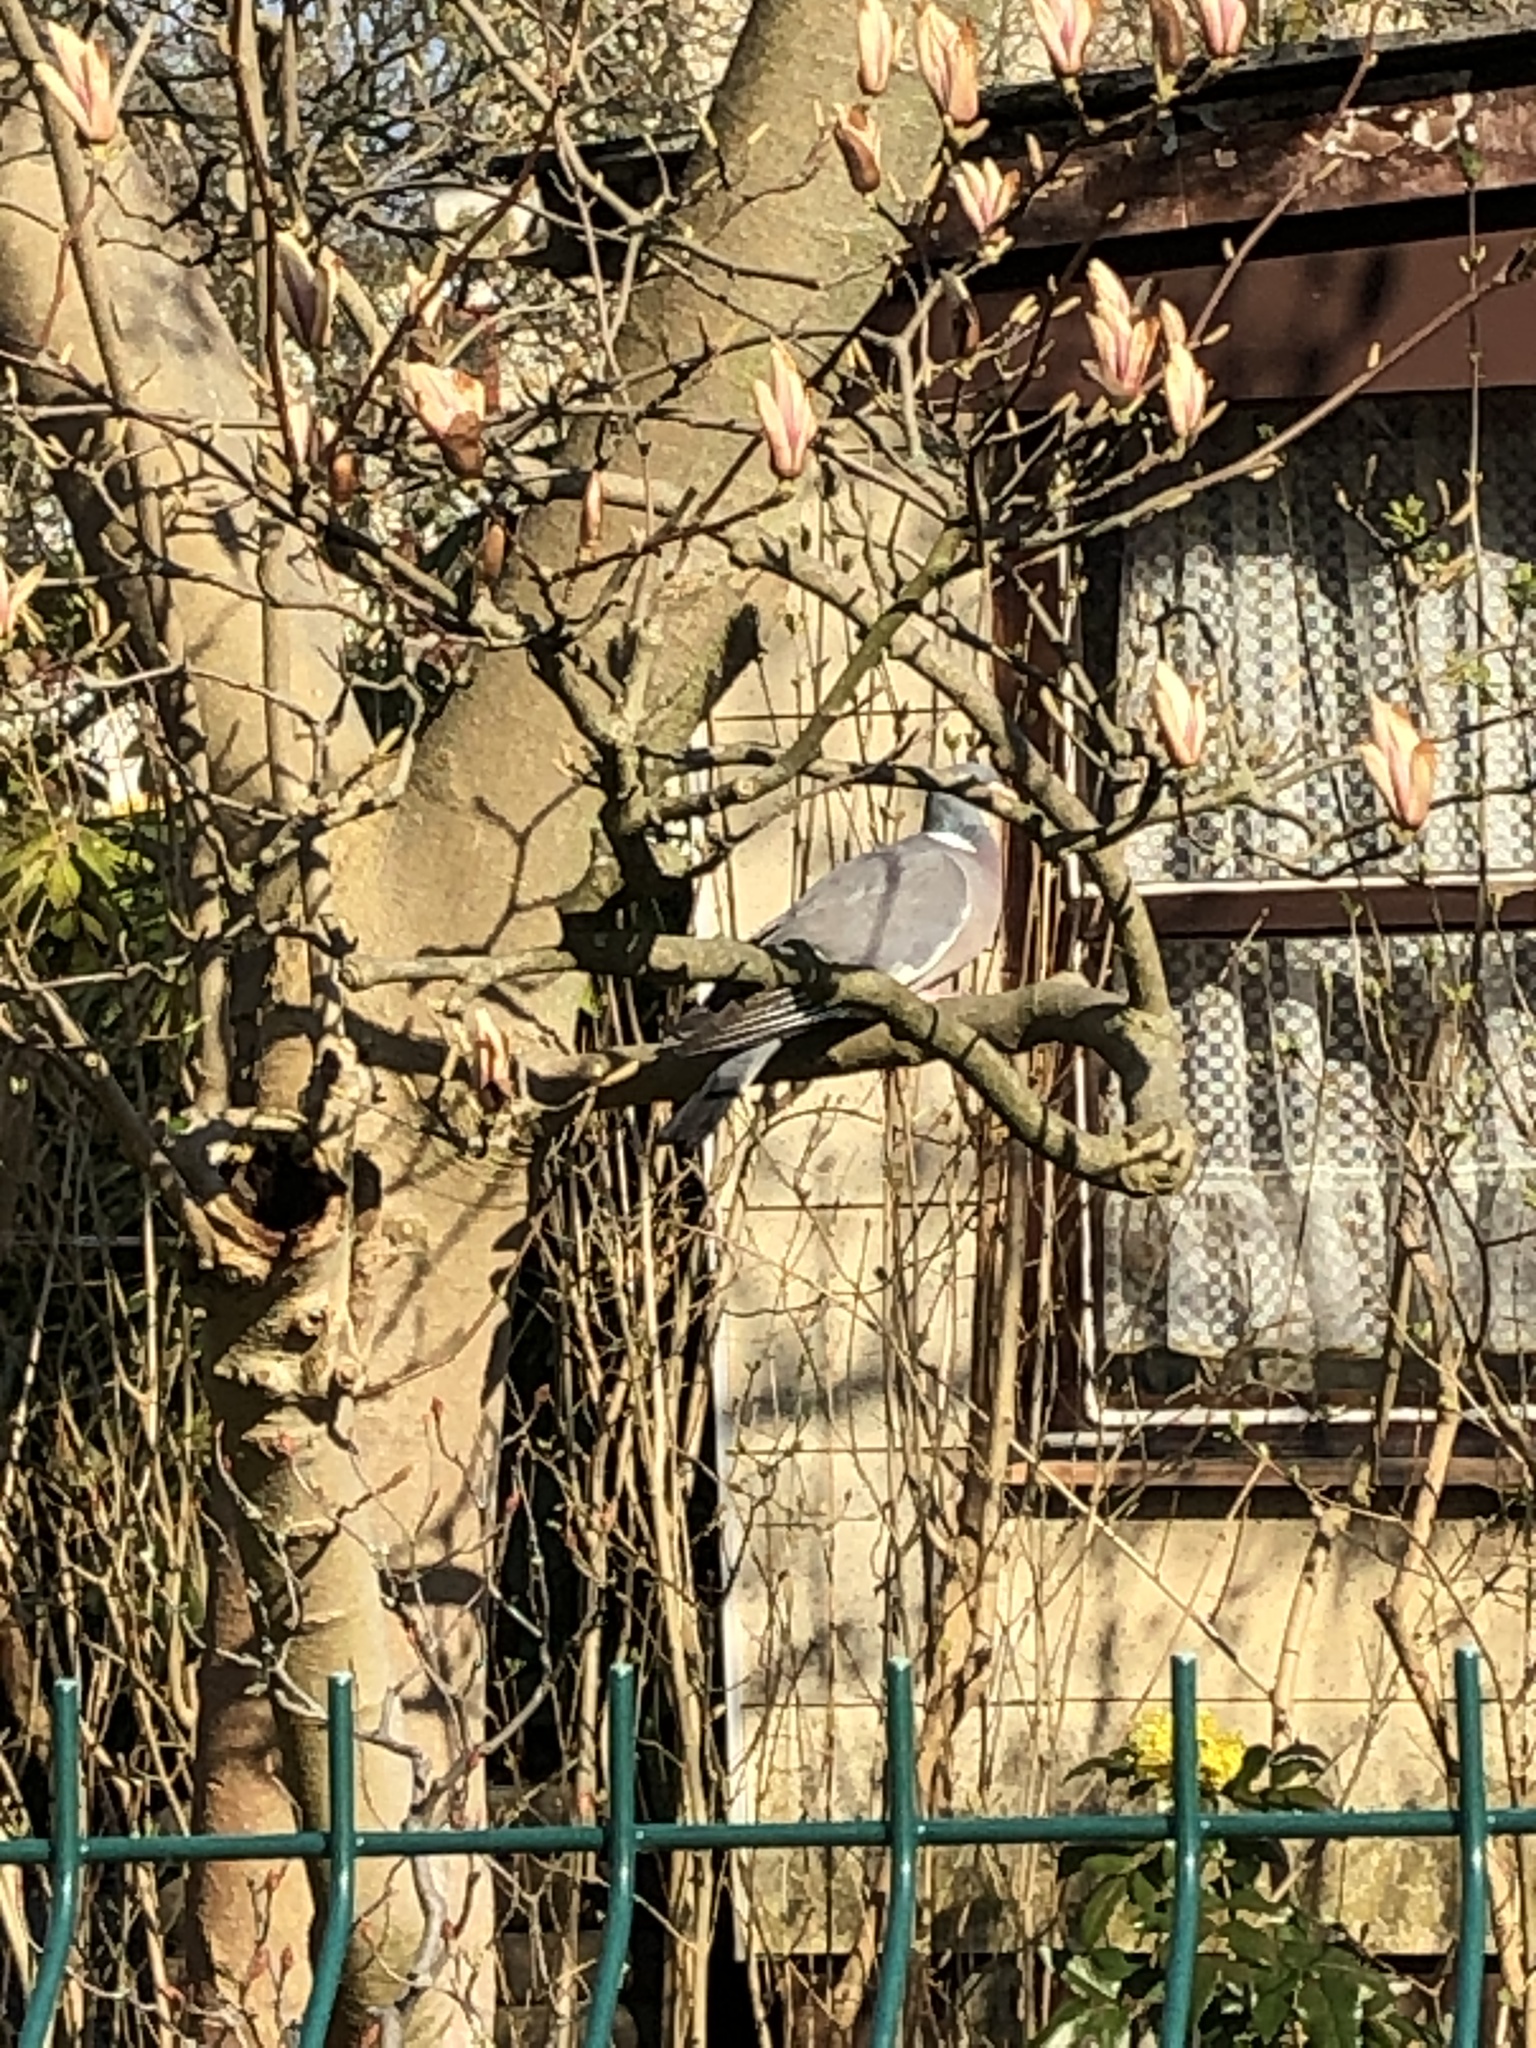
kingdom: Animalia
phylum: Chordata
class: Aves
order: Columbiformes
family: Columbidae
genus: Columba
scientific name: Columba palumbus
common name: Common wood pigeon
